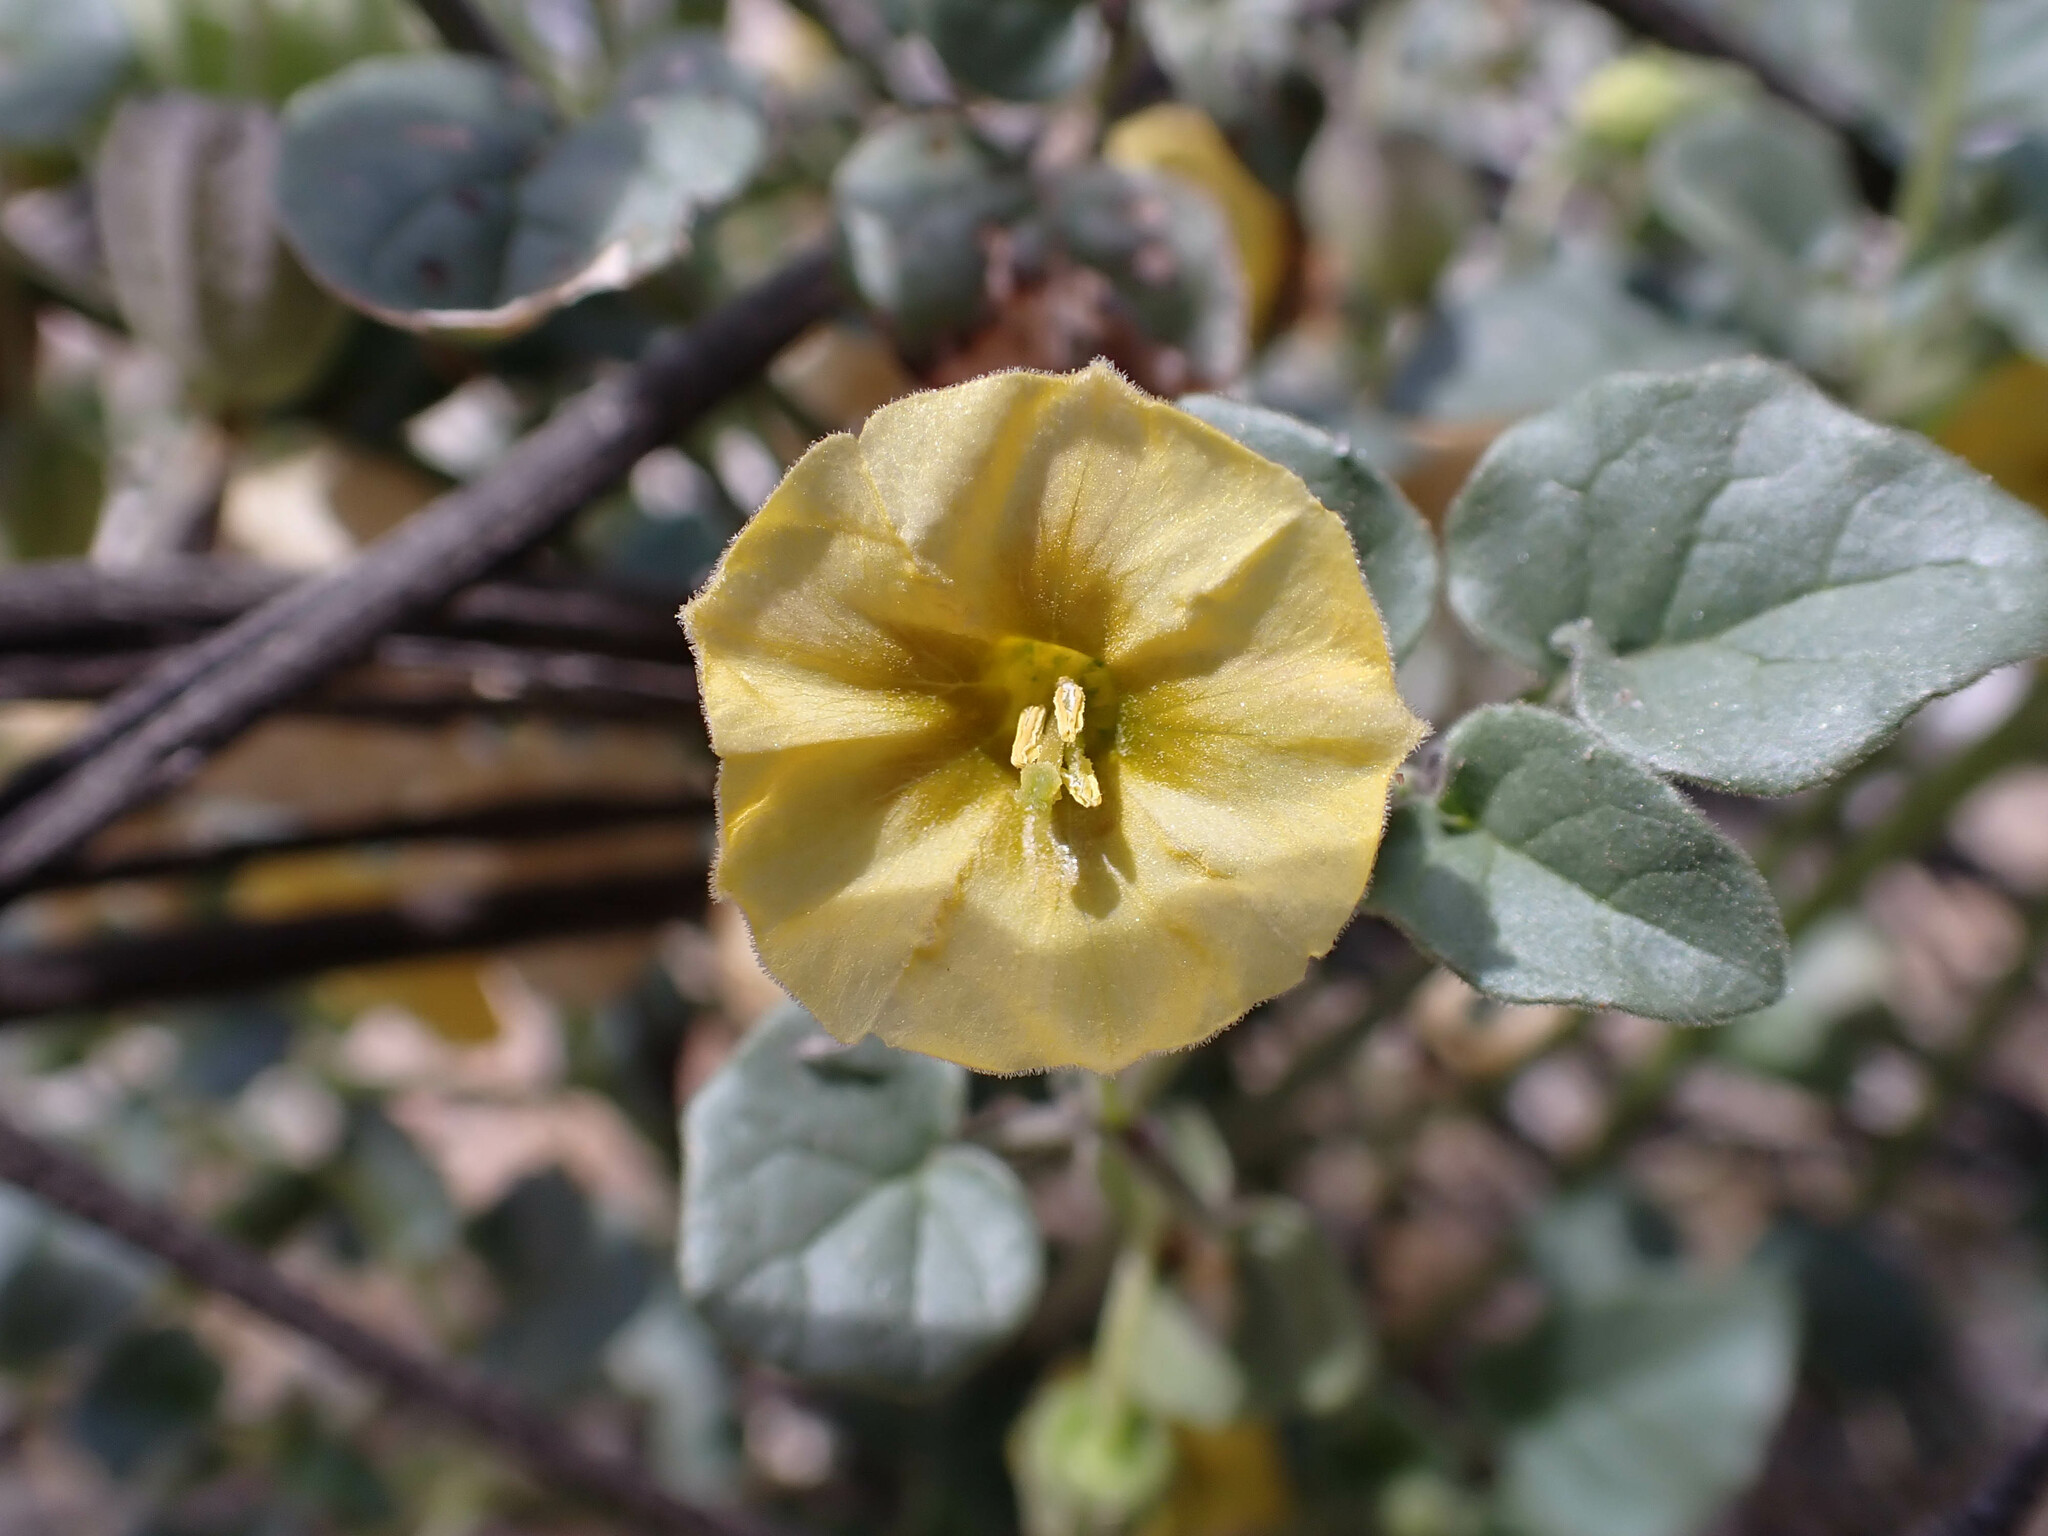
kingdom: Plantae
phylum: Tracheophyta
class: Magnoliopsida
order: Solanales
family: Solanaceae
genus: Physalis
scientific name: Physalis crassifolia
